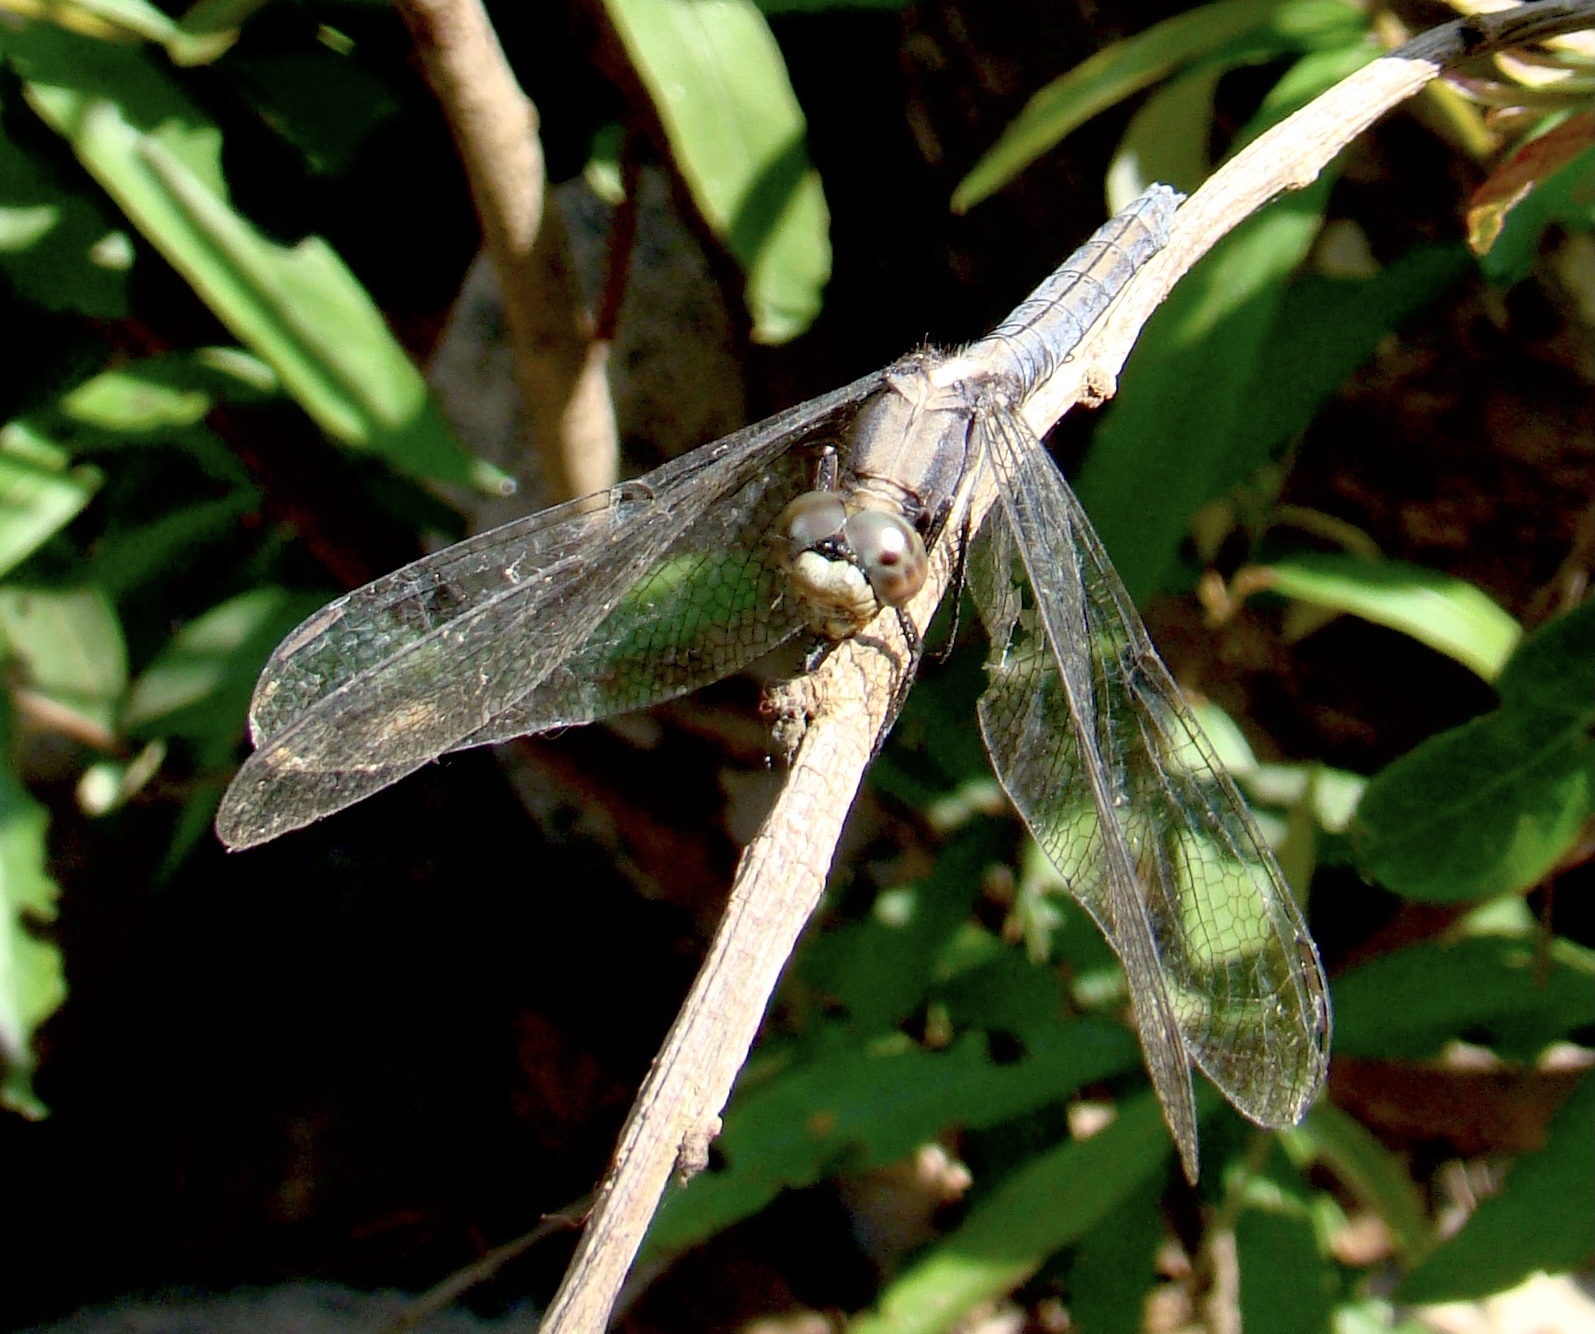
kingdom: Animalia
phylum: Arthropoda
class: Insecta
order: Odonata
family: Libellulidae
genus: Orthetrum
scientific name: Orthetrum glaucum
